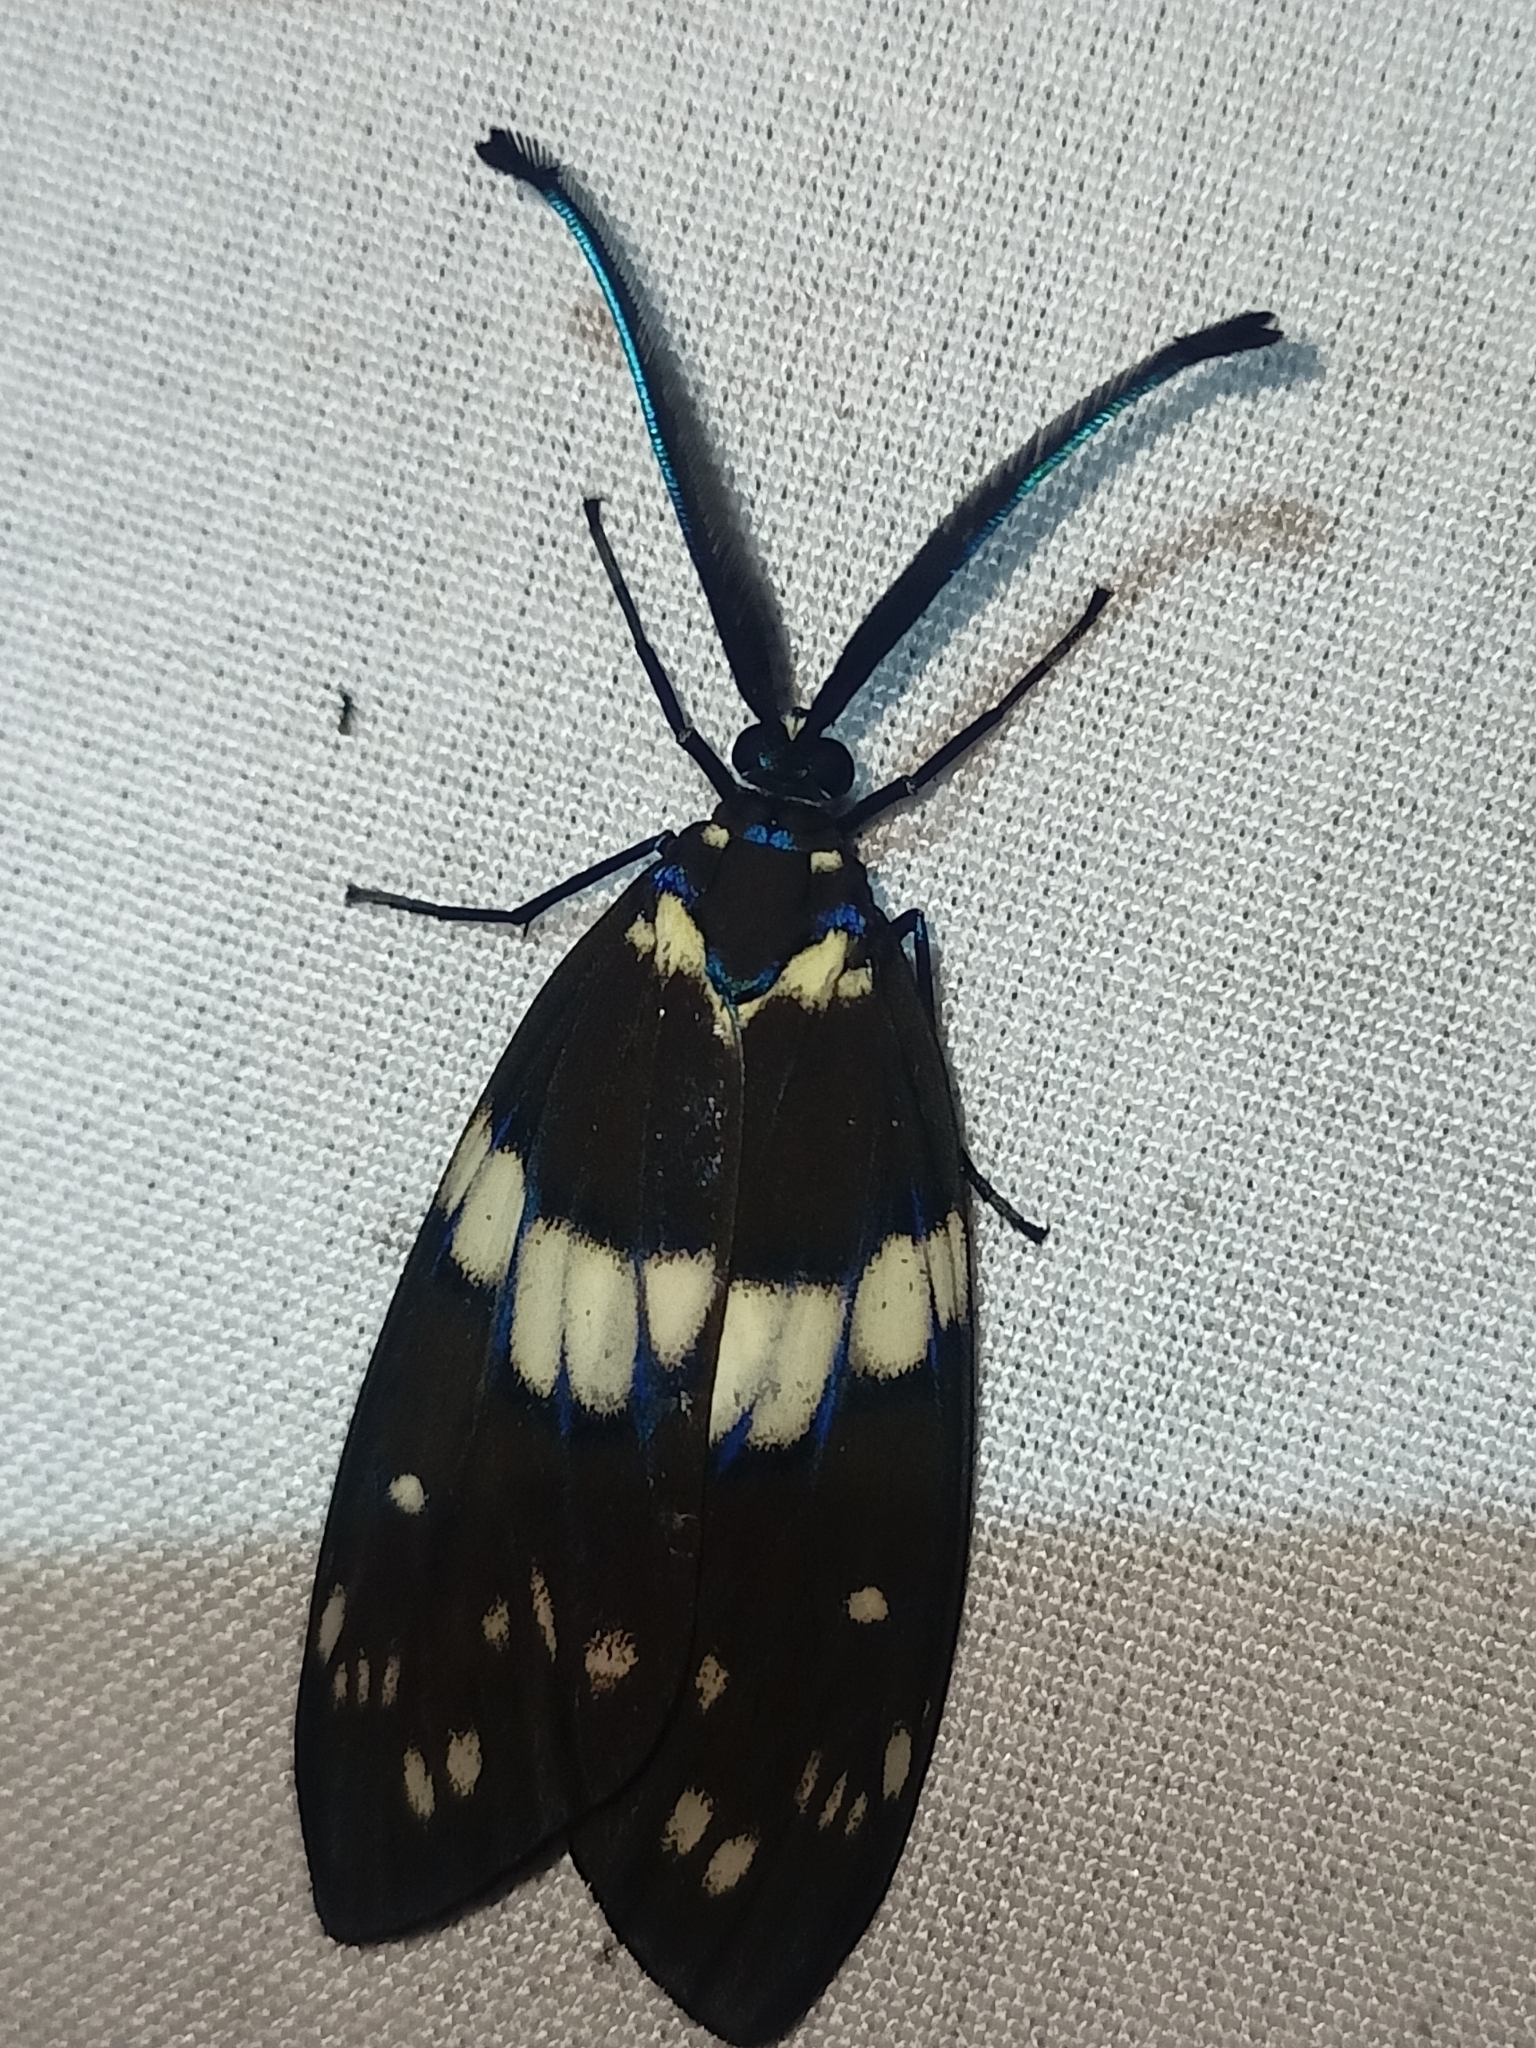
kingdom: Animalia
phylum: Arthropoda
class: Insecta
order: Lepidoptera
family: Zygaenidae
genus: Eterusia
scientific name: Eterusia aedea
